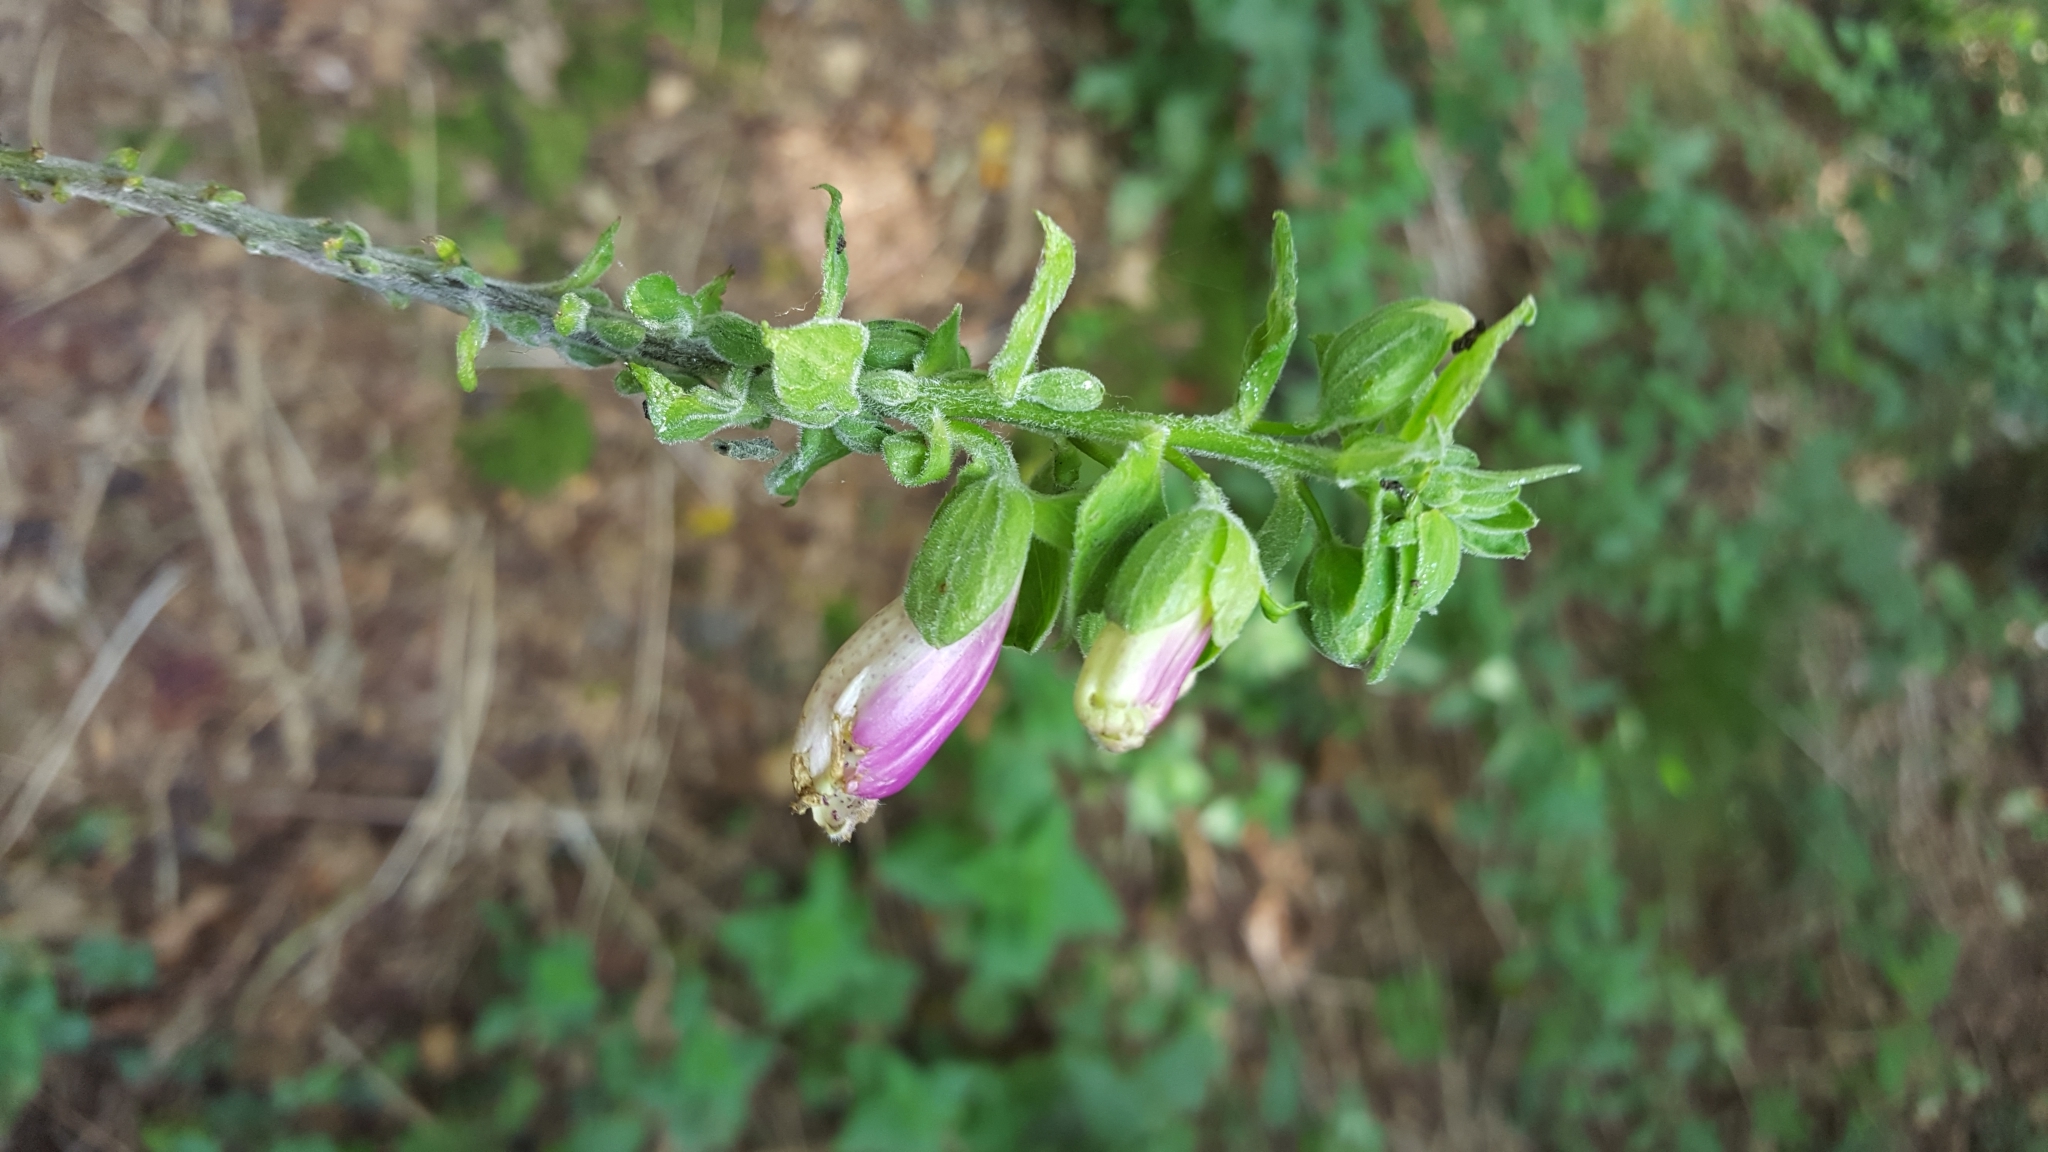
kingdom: Plantae
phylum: Tracheophyta
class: Magnoliopsida
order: Lamiales
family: Plantaginaceae
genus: Digitalis
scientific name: Digitalis purpurea
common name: Foxglove
